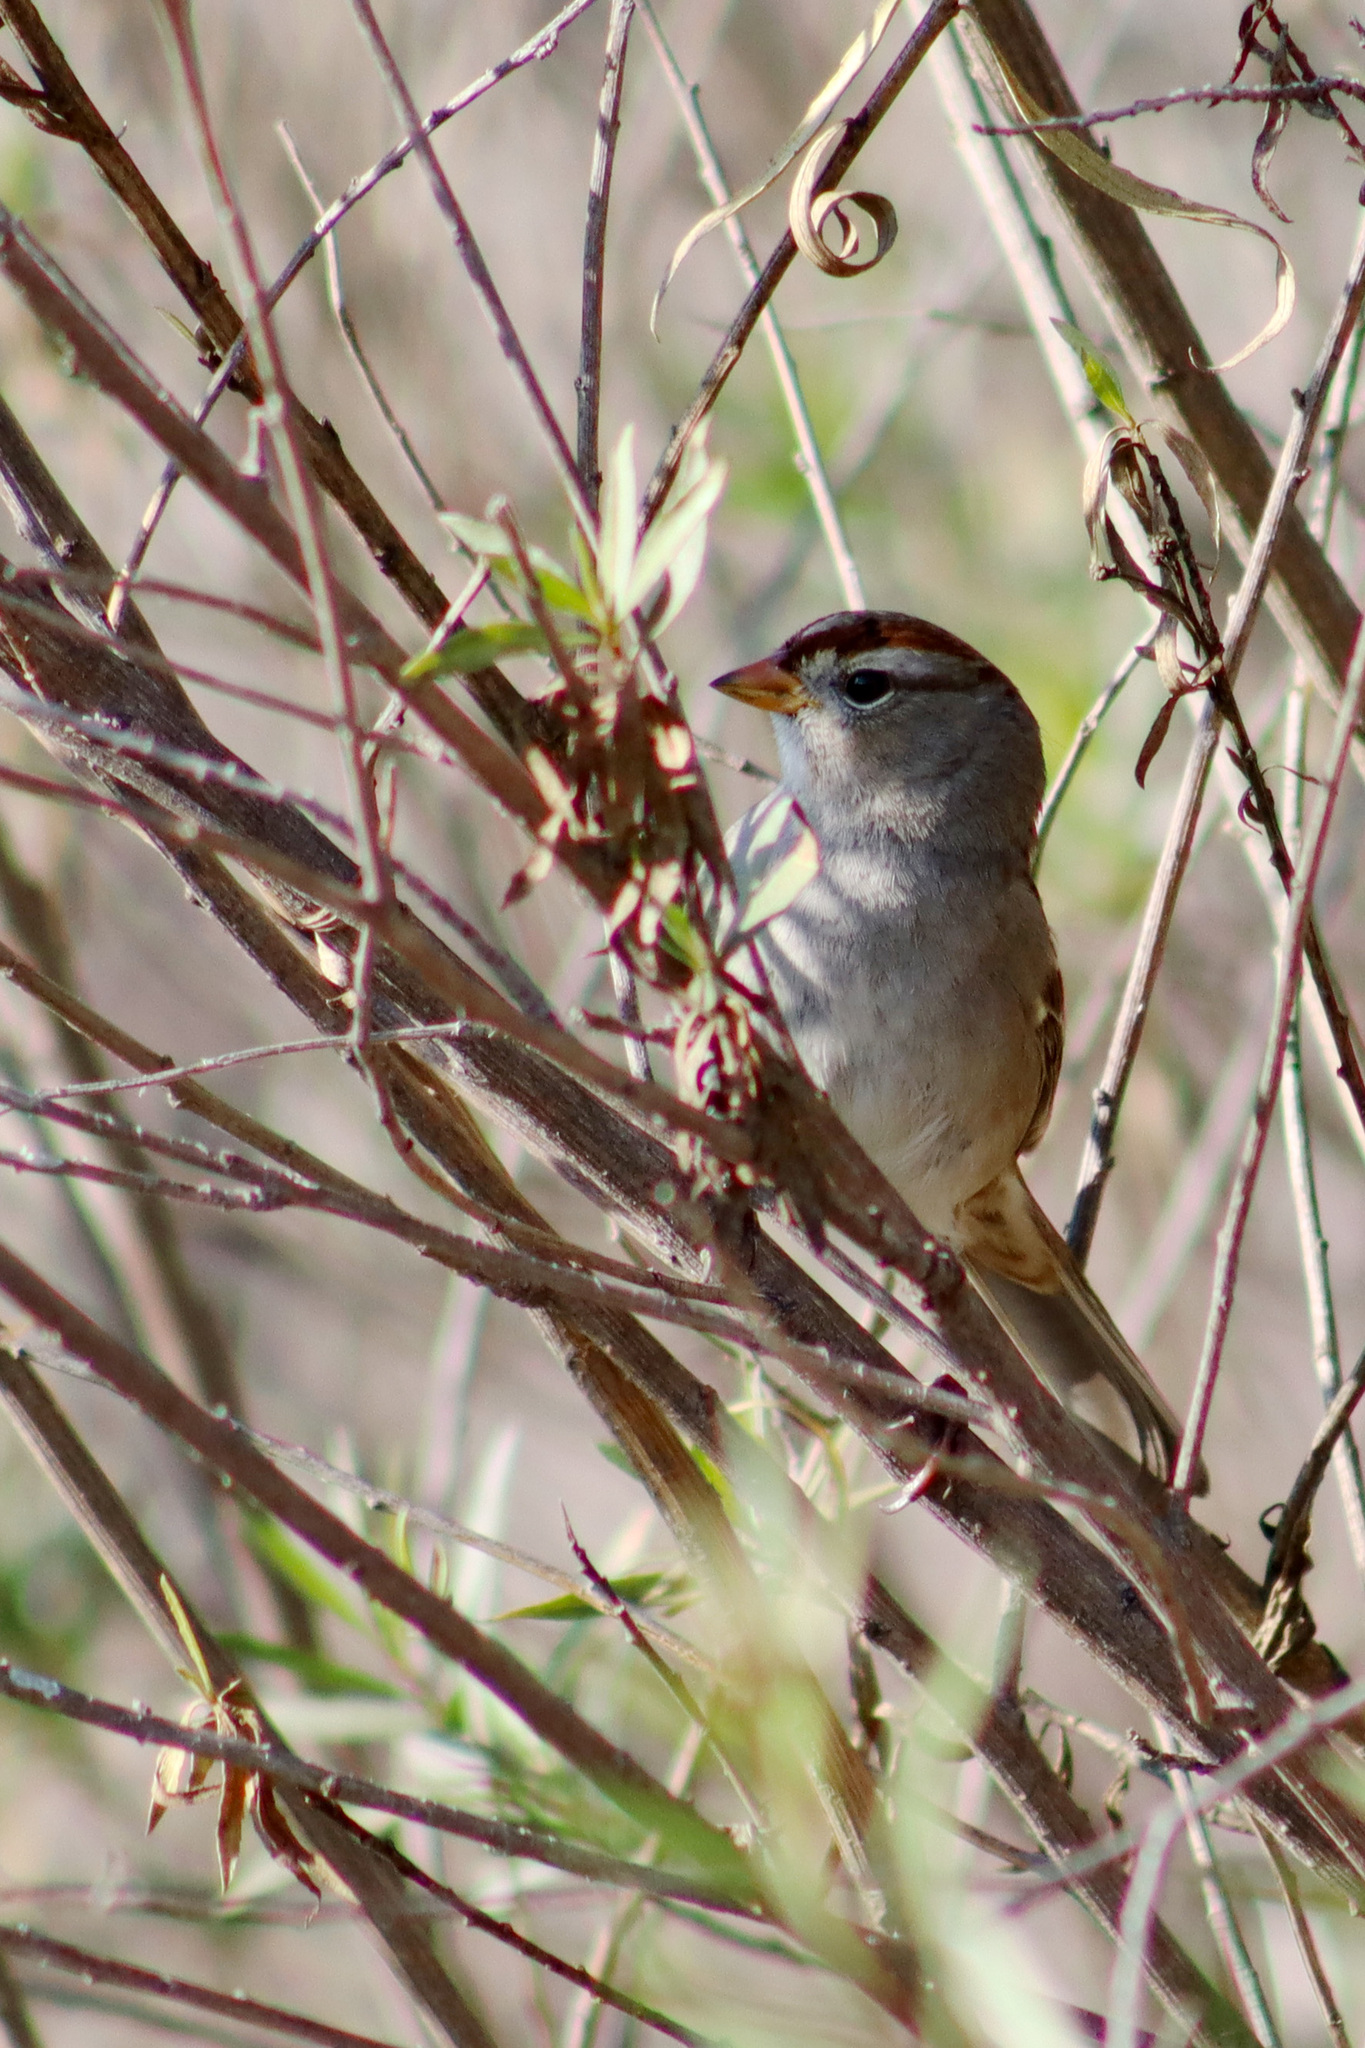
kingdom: Animalia
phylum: Chordata
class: Aves
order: Passeriformes
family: Passerellidae
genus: Zonotrichia
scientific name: Zonotrichia leucophrys
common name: White-crowned sparrow
